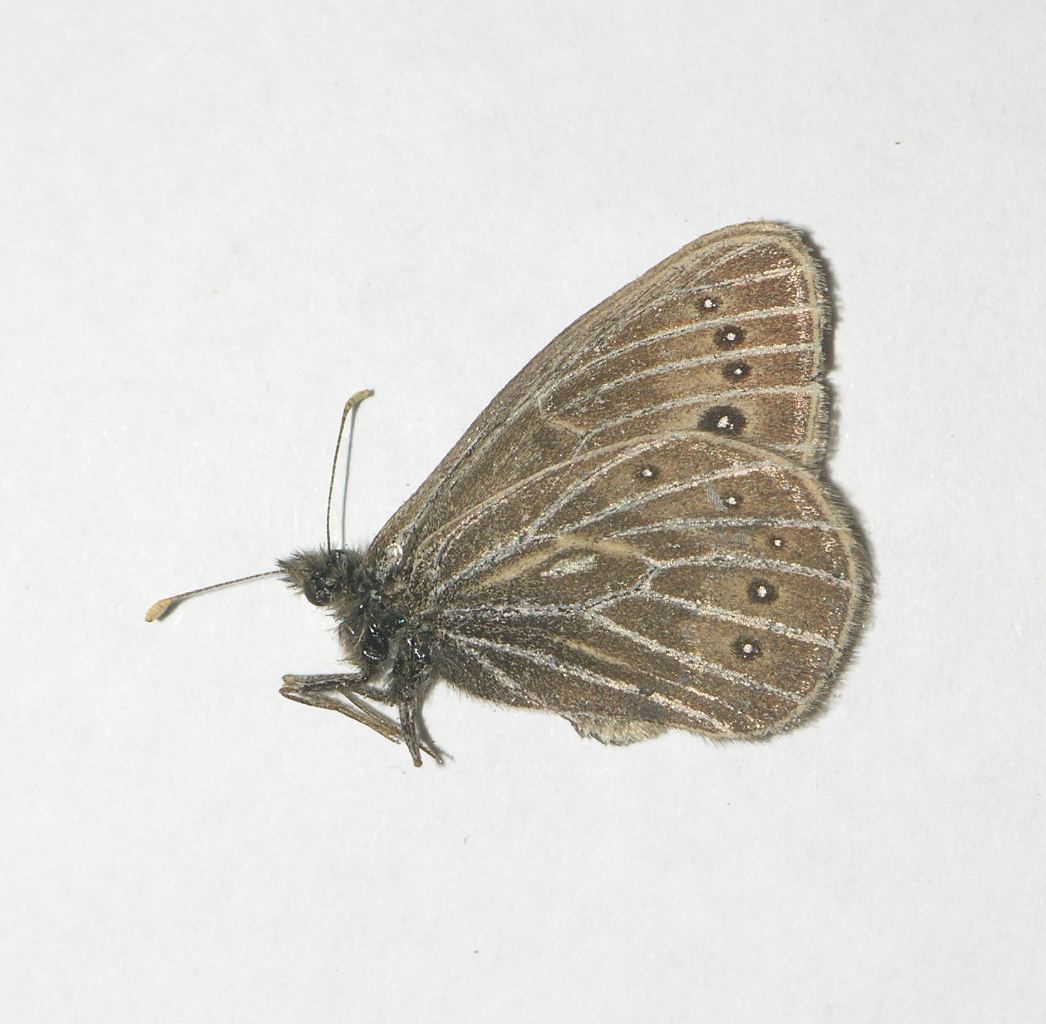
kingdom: Animalia
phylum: Arthropoda
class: Insecta
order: Lepidoptera
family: Nymphalidae
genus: Triphysa
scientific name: Triphysa phryne
